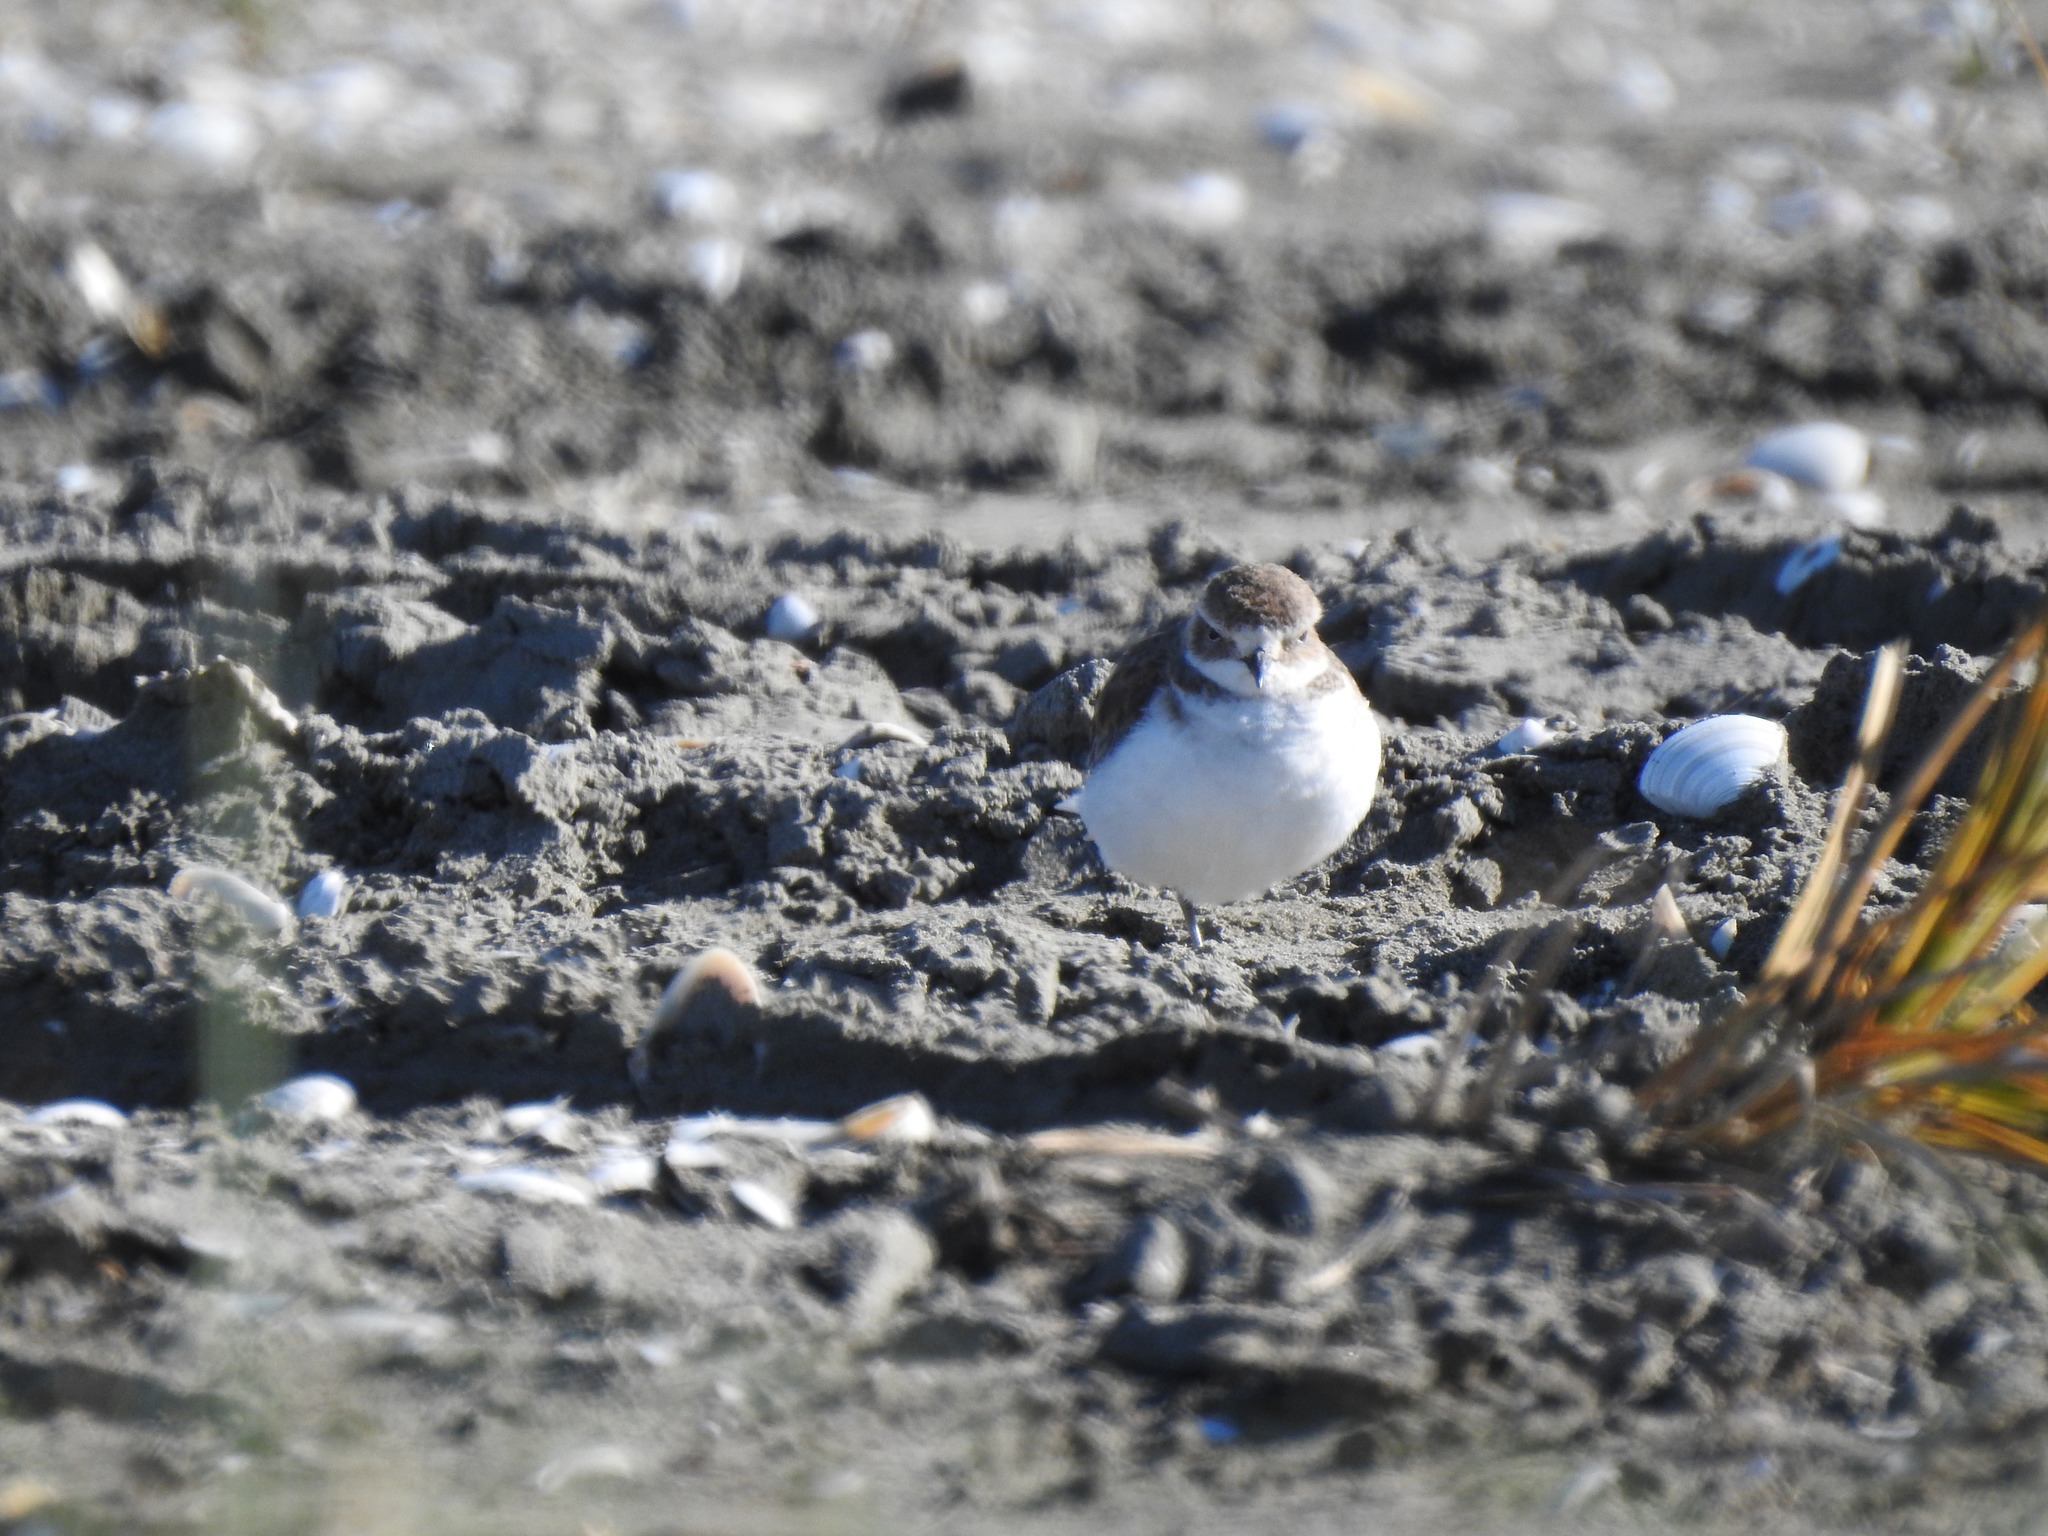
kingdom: Animalia
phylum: Chordata
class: Aves
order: Charadriiformes
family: Charadriidae
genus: Anarhynchus
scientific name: Anarhynchus
